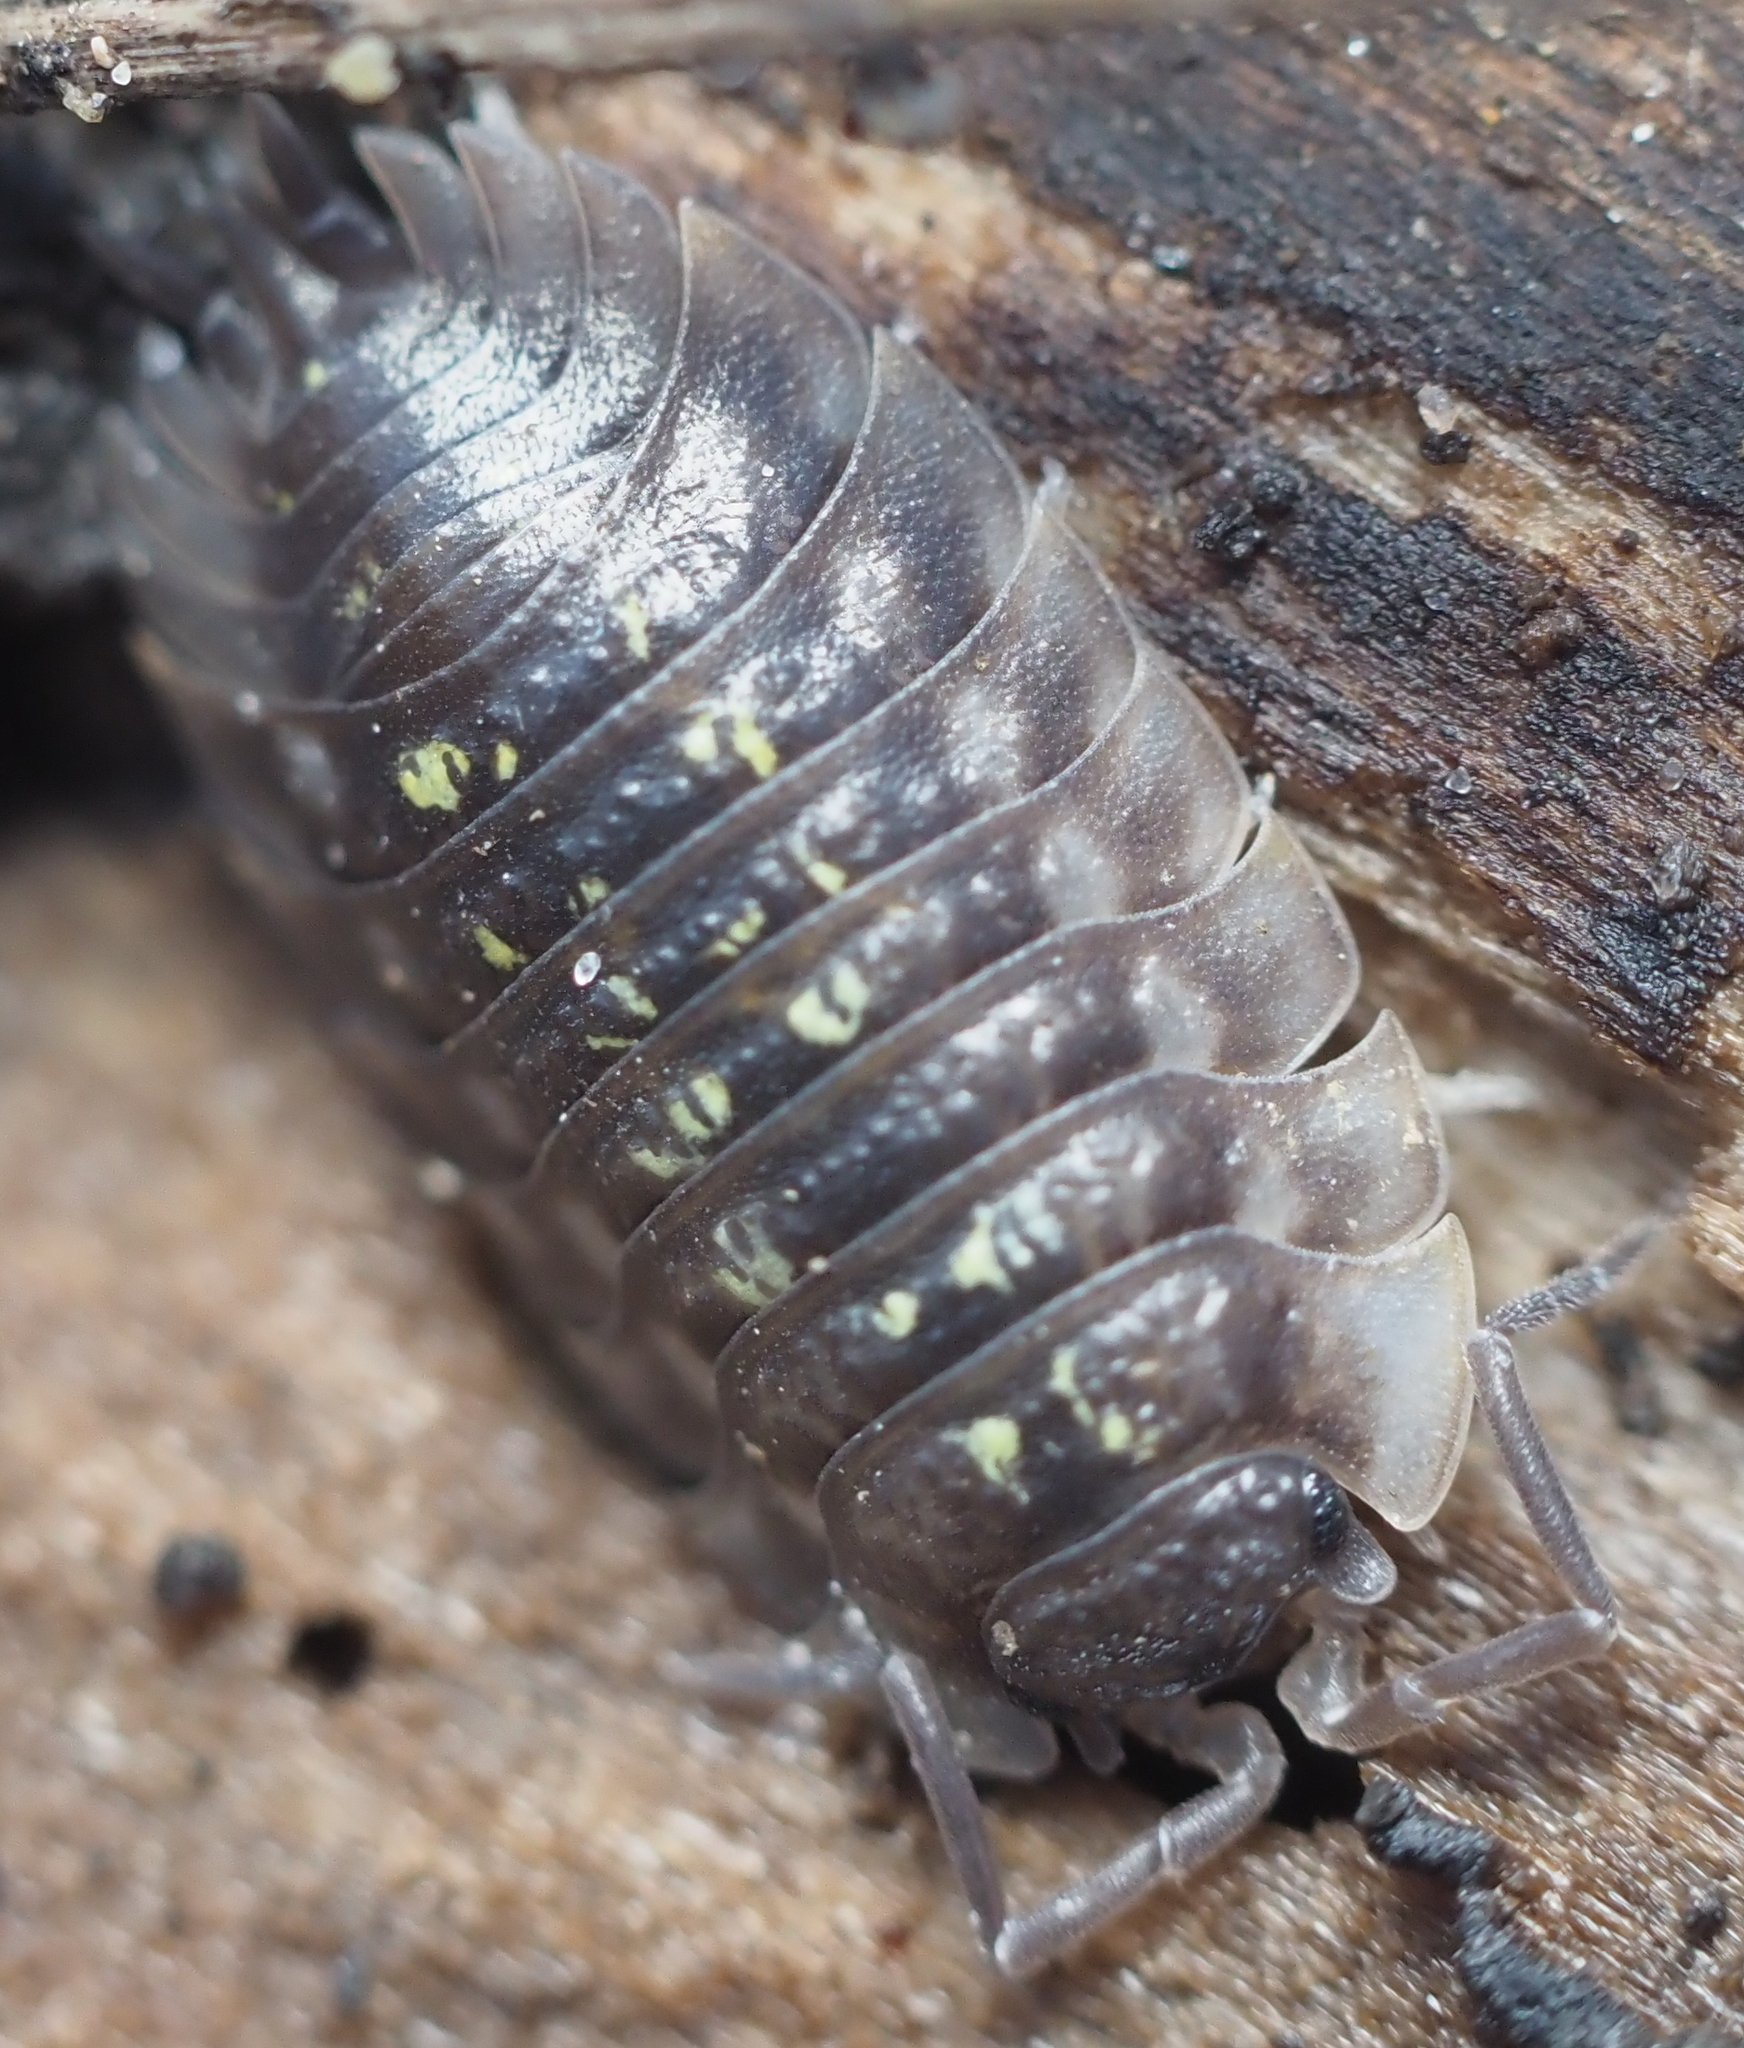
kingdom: Animalia
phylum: Arthropoda
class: Malacostraca
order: Isopoda
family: Oniscidae
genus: Oniscus
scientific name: Oniscus asellus
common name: Common shiny woodlouse
